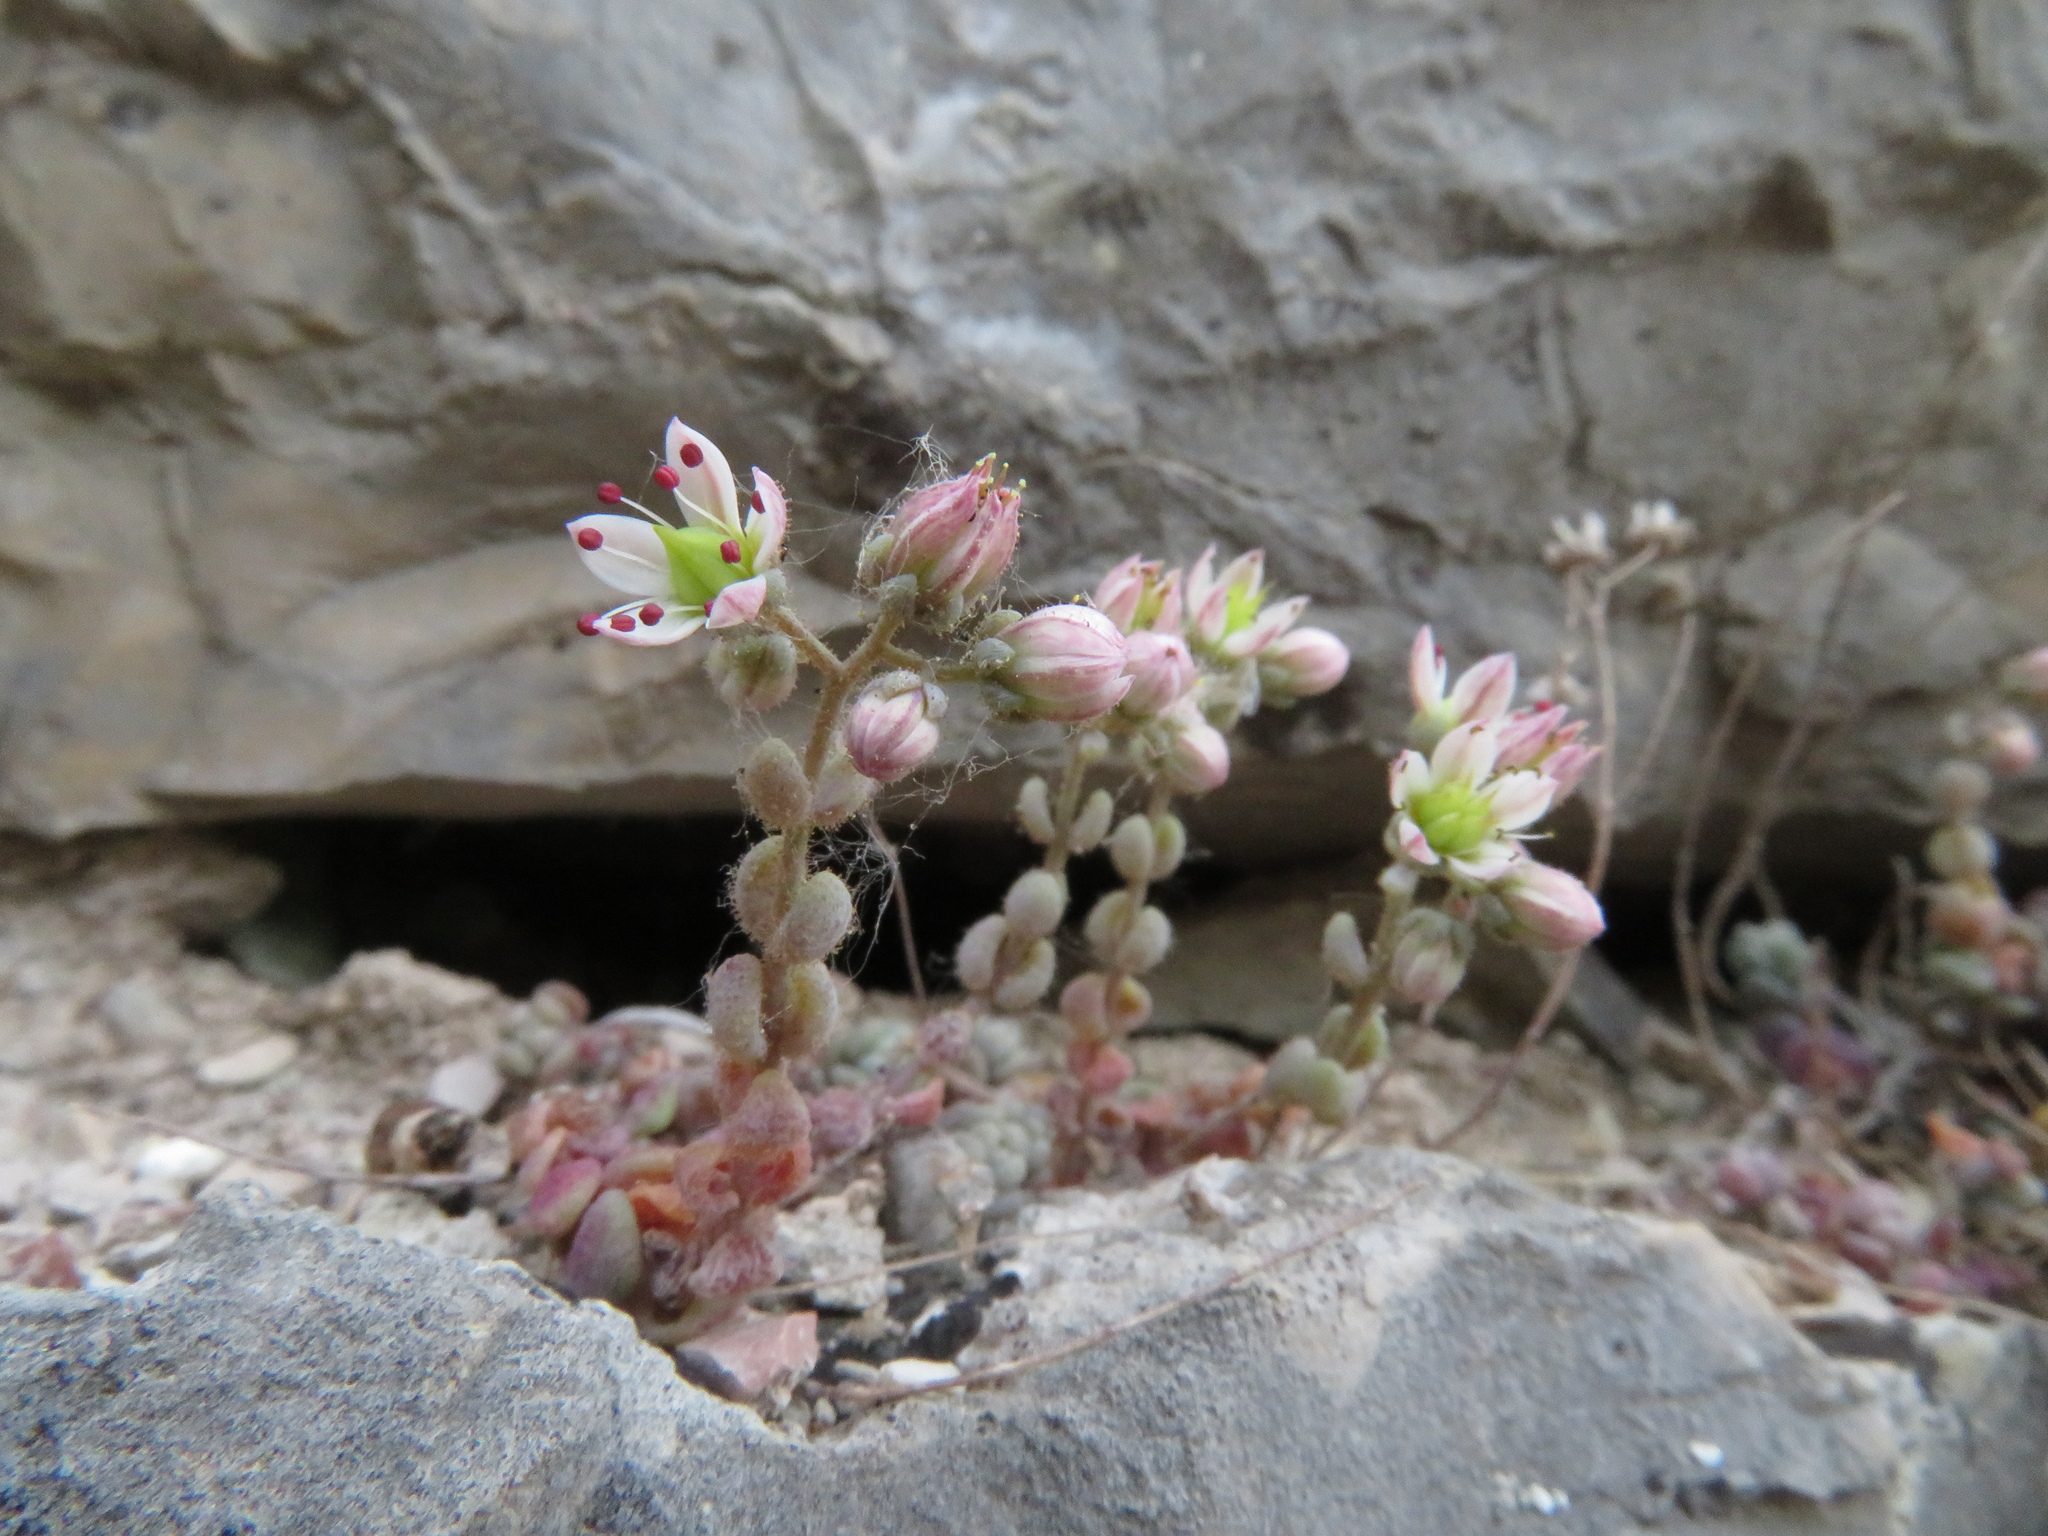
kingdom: Plantae
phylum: Tracheophyta
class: Magnoliopsida
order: Saxifragales
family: Crassulaceae
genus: Sedum
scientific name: Sedum dasyphyllum
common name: Thick-leaf stonecrop
